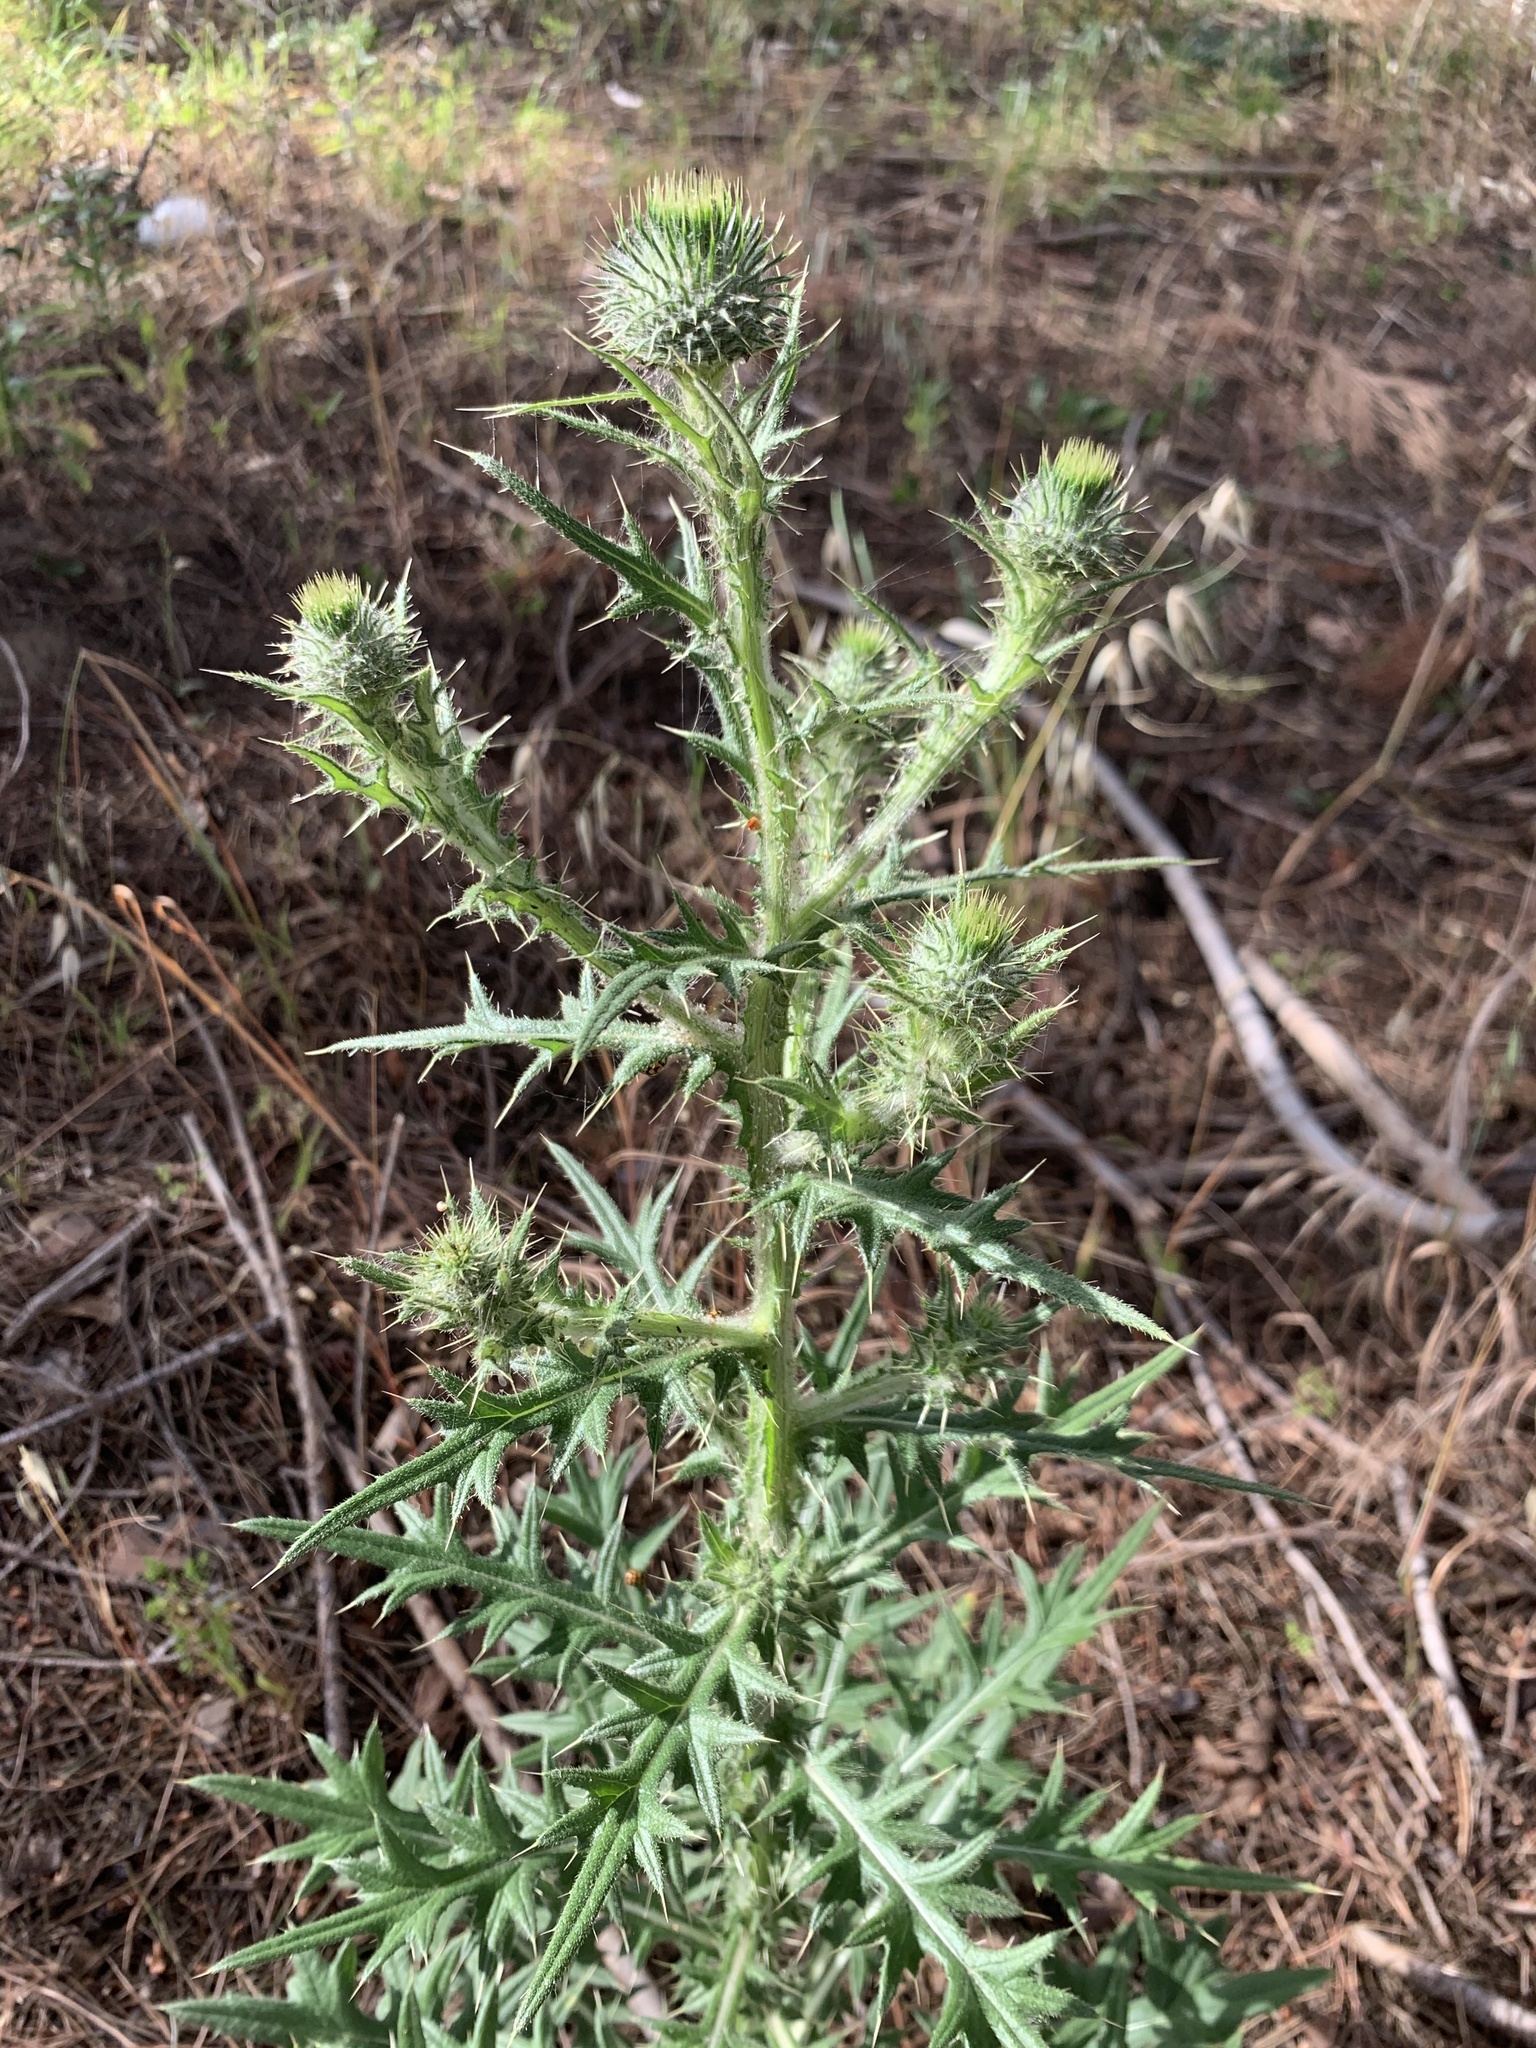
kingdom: Plantae
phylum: Tracheophyta
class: Magnoliopsida
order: Asterales
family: Asteraceae
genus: Cirsium
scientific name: Cirsium vulgare
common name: Bull thistle
